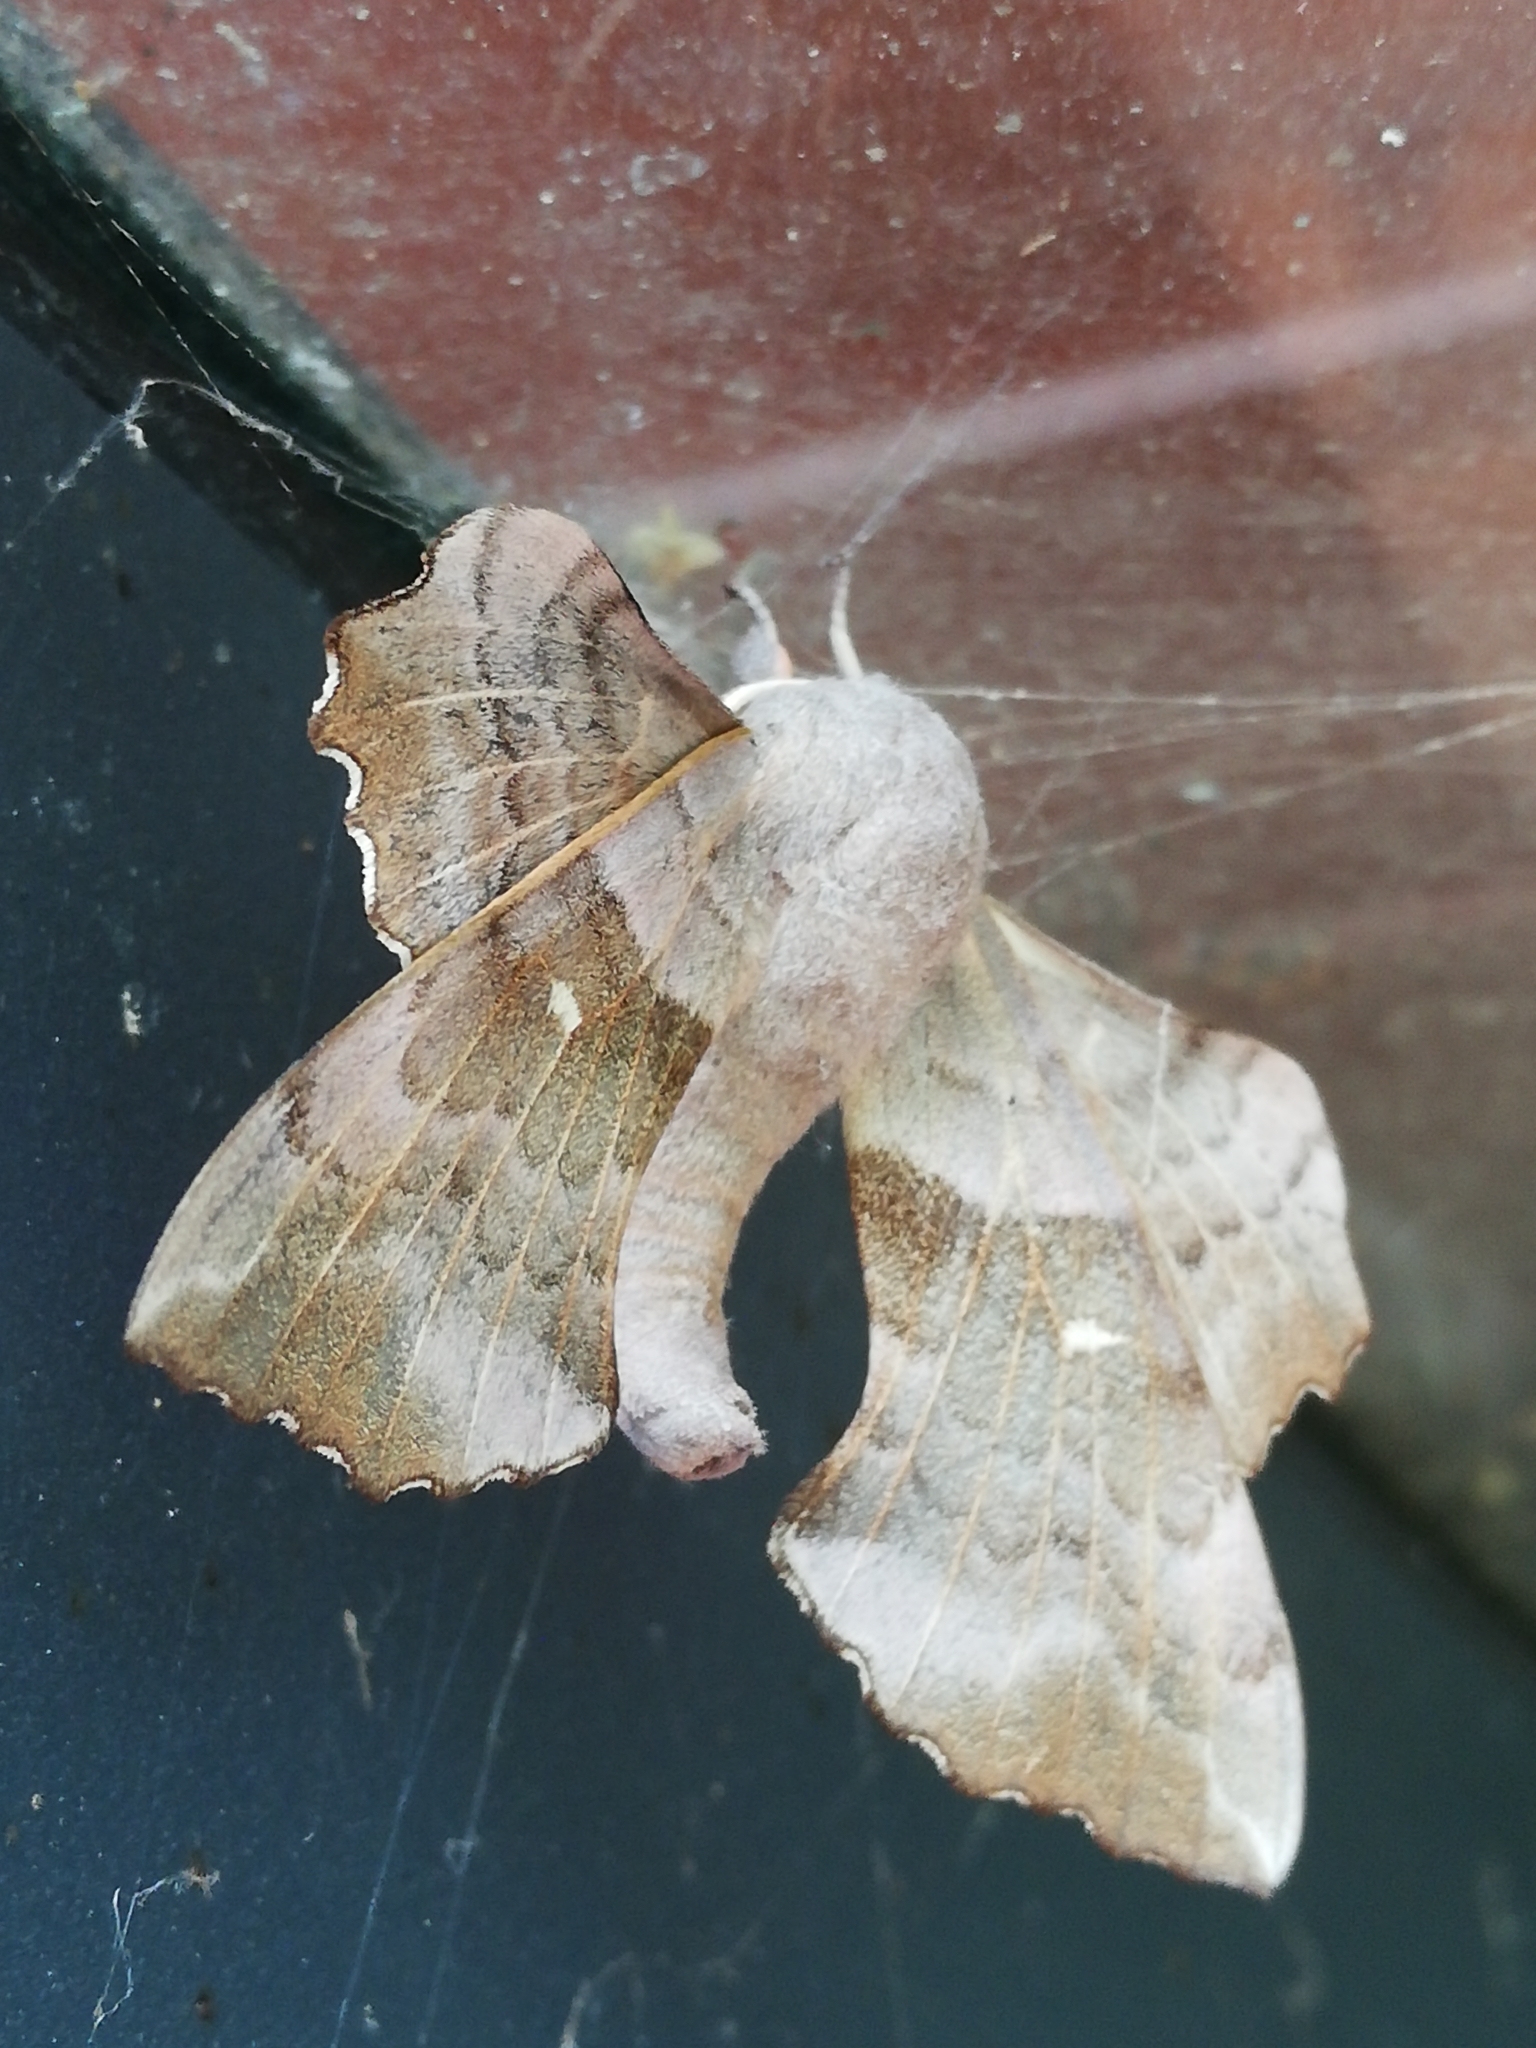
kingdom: Animalia
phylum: Arthropoda
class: Insecta
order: Lepidoptera
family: Sphingidae
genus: Laothoe
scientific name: Laothoe populi
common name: Poplar hawk-moth
